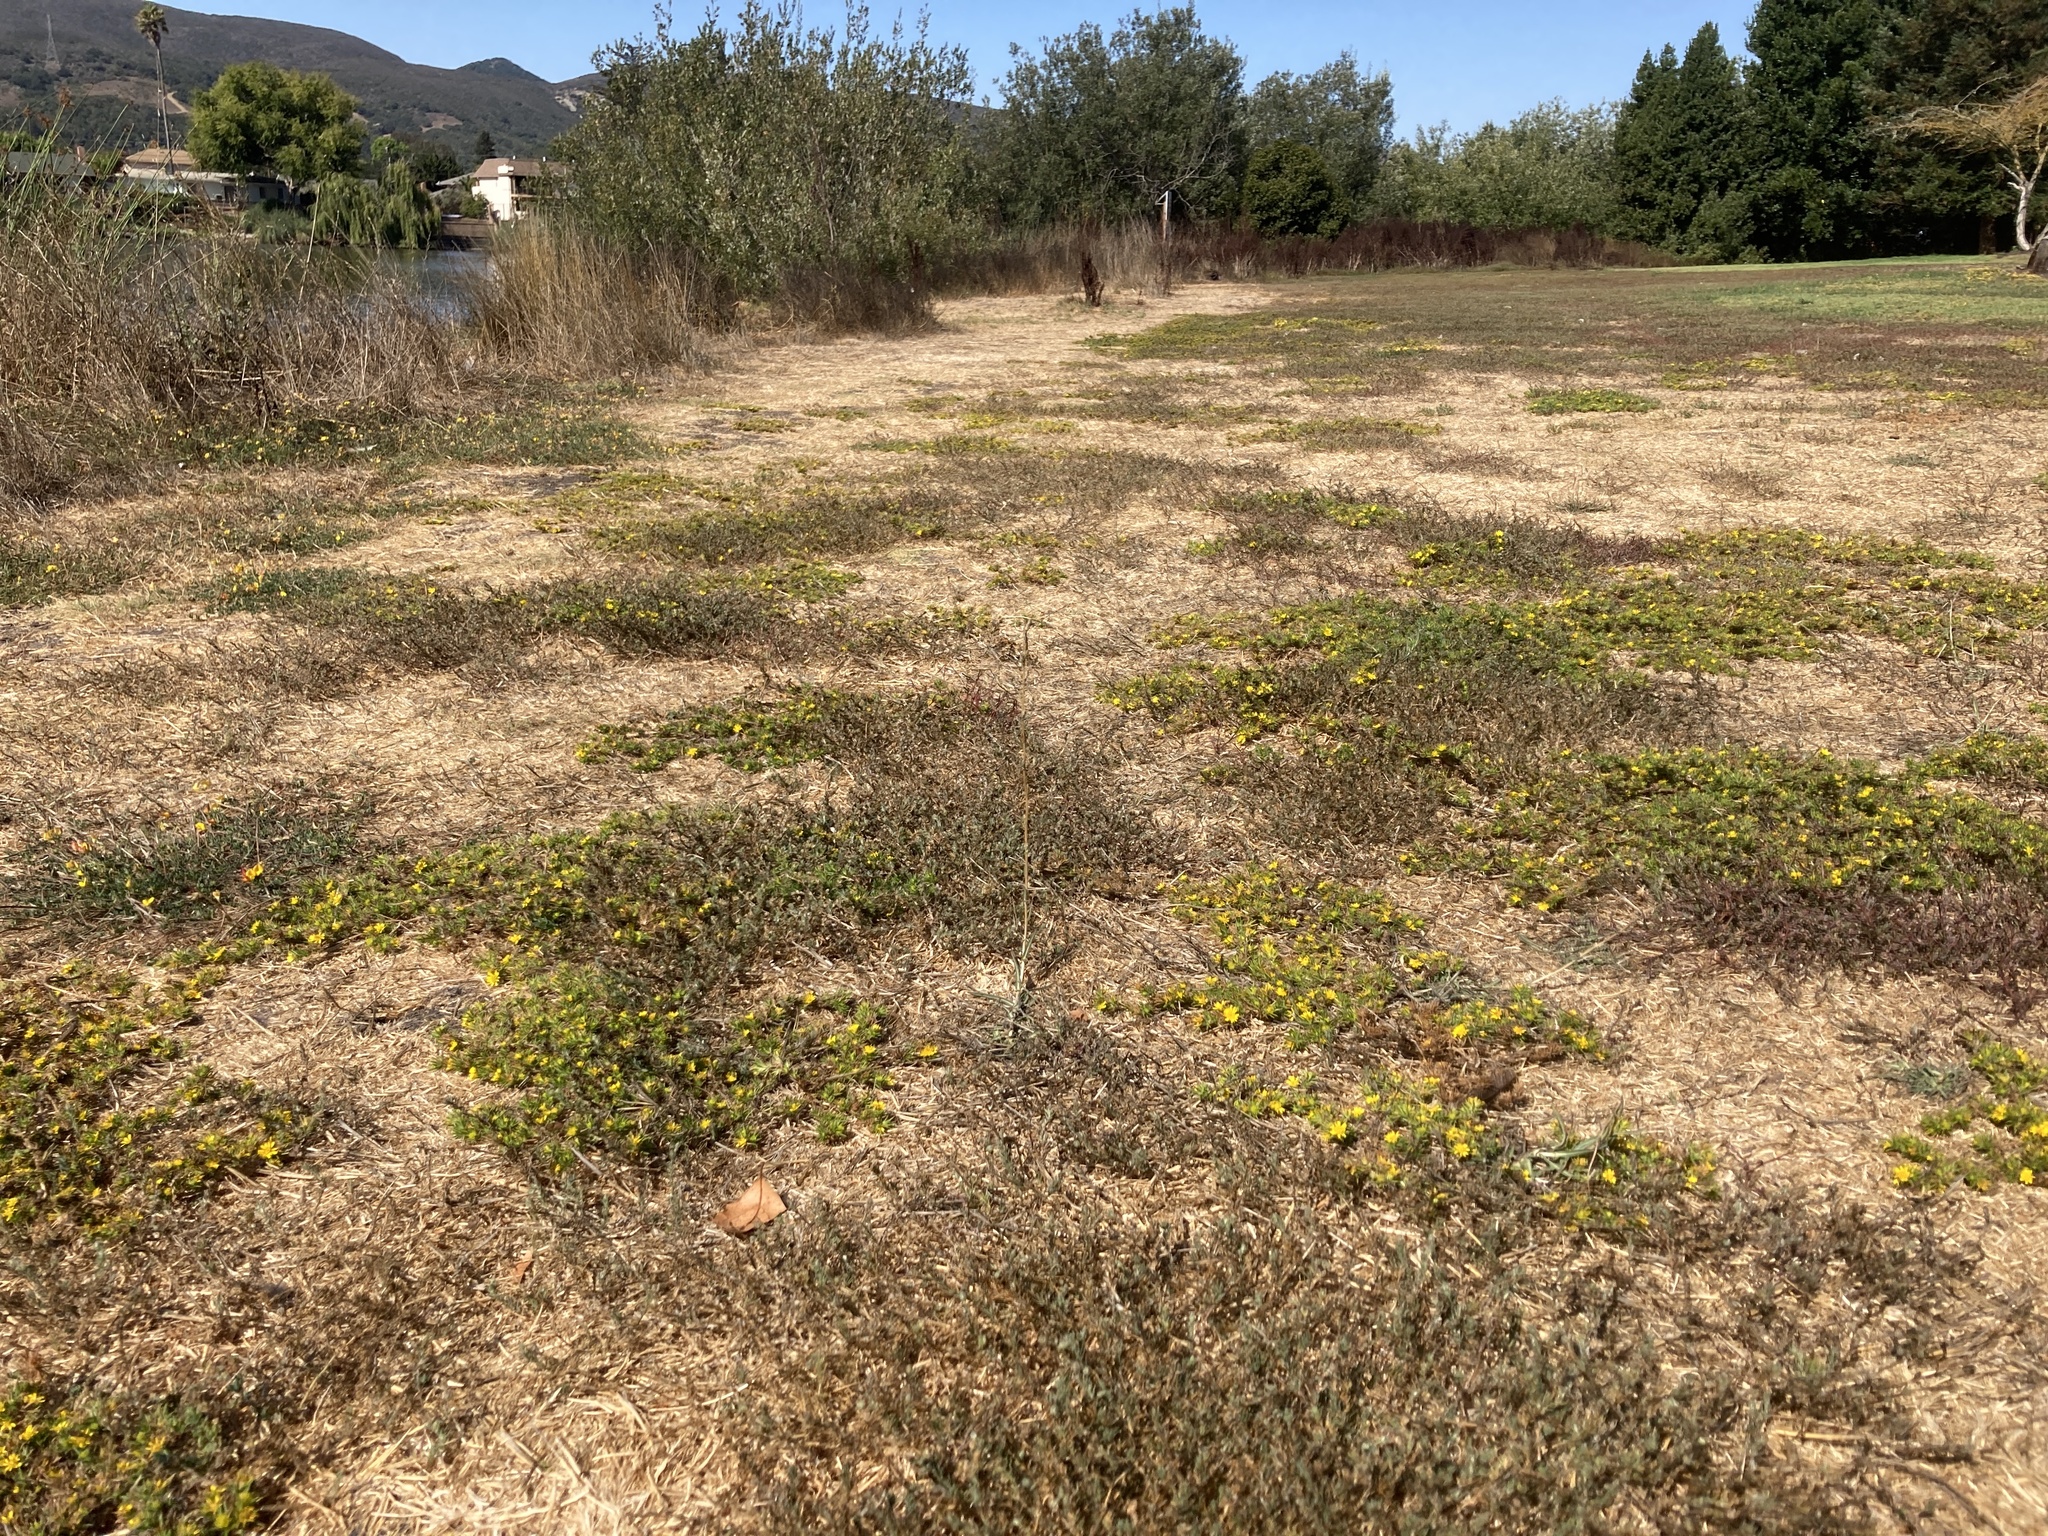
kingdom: Plantae
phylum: Tracheophyta
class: Magnoliopsida
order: Asterales
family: Asteraceae
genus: Centromadia
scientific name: Centromadia parryi
